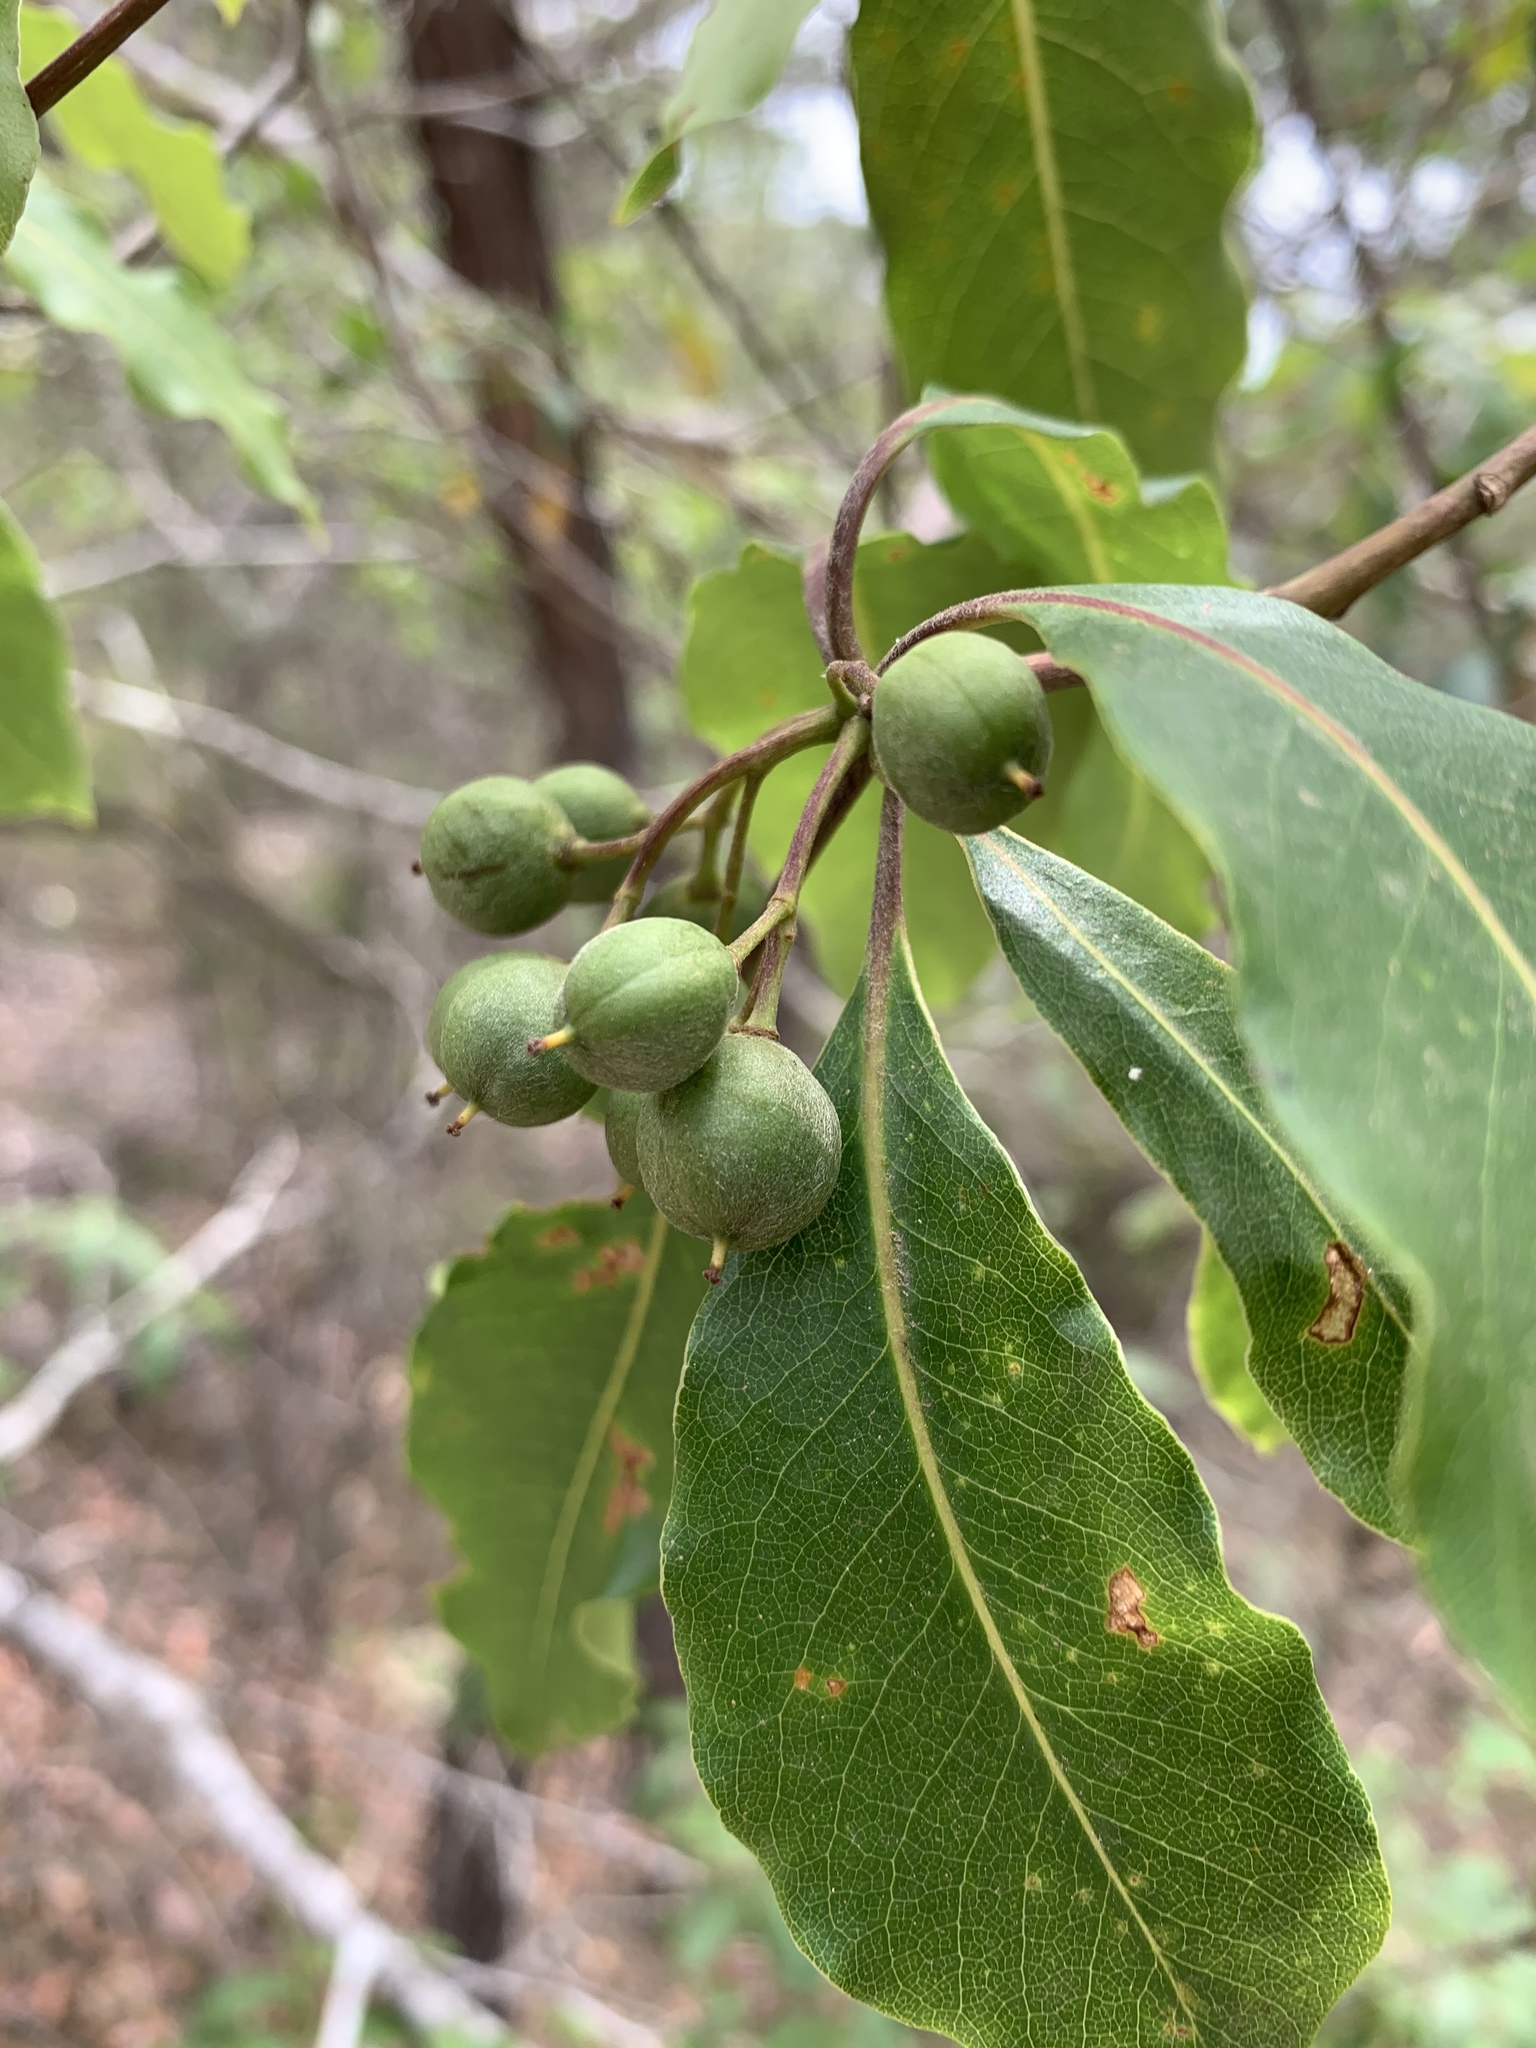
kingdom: Plantae
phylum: Tracheophyta
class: Magnoliopsida
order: Apiales
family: Pittosporaceae
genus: Pittosporum
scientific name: Pittosporum undulatum
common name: Australian cheesewood
